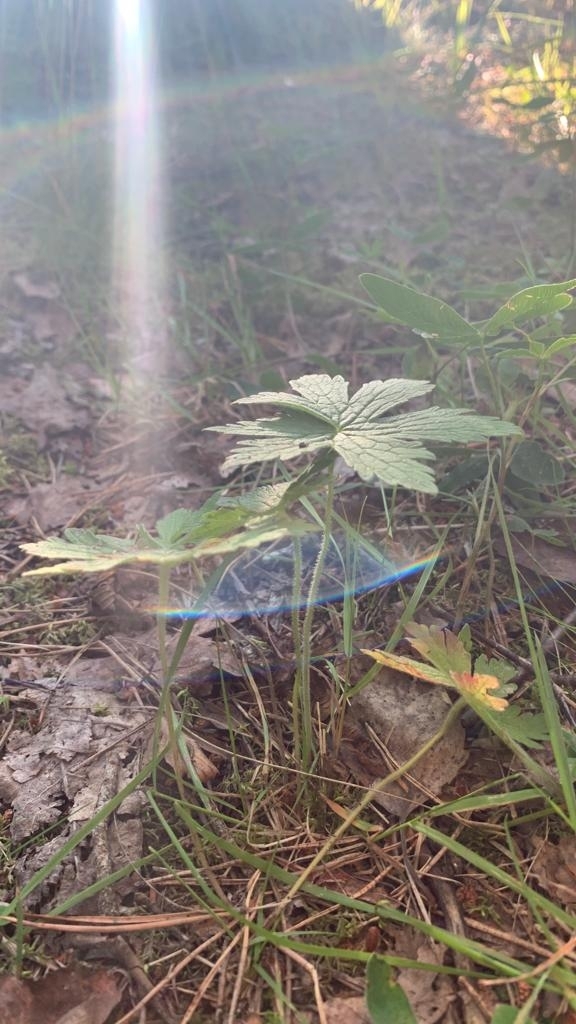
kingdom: Plantae
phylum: Tracheophyta
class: Magnoliopsida
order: Geraniales
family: Geraniaceae
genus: Geranium
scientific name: Geranium sylvaticum
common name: Wood crane's-bill
